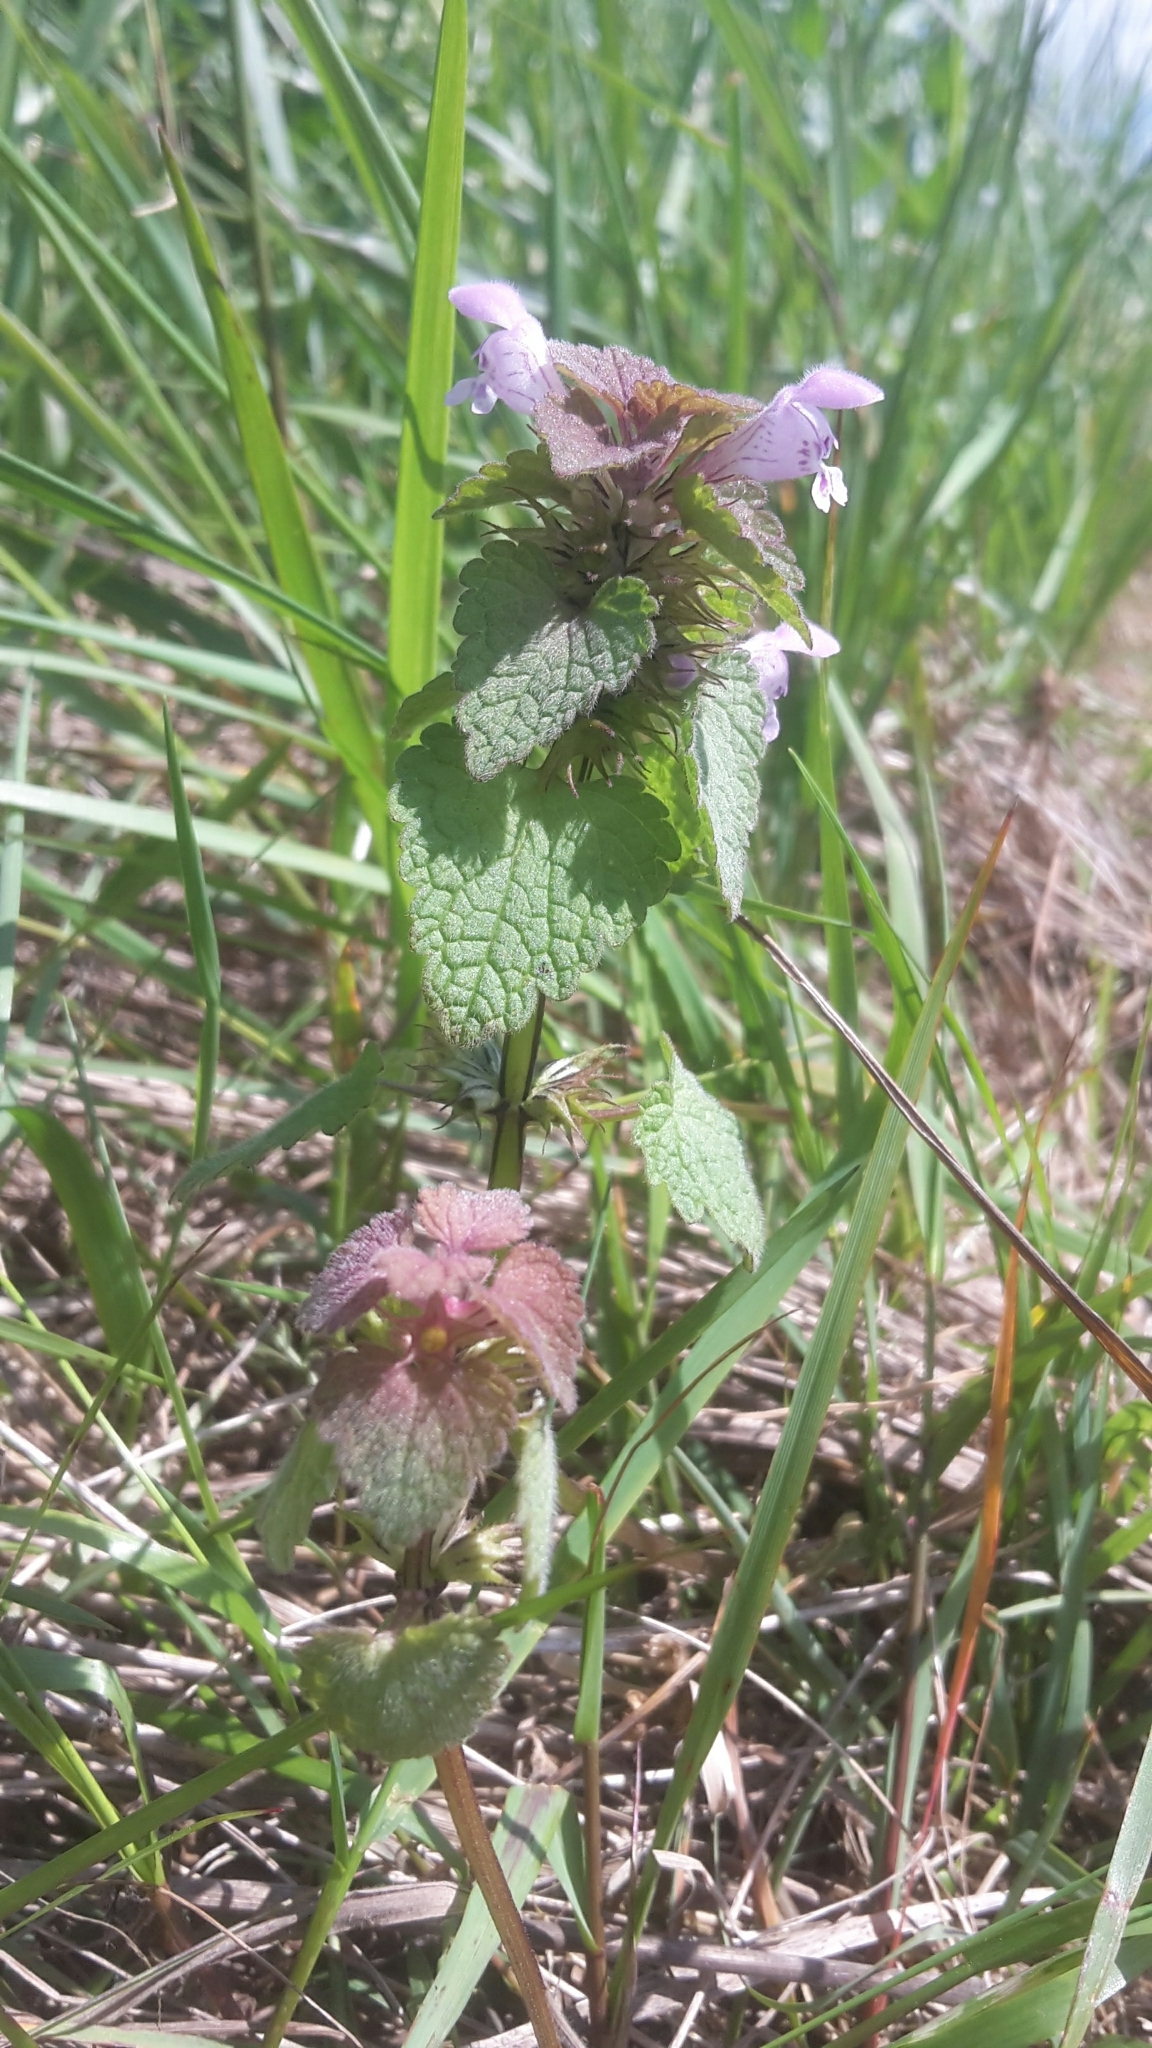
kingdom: Plantae
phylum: Tracheophyta
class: Magnoliopsida
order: Lamiales
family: Lamiaceae
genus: Lamium
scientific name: Lamium purpureum
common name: Red dead-nettle
